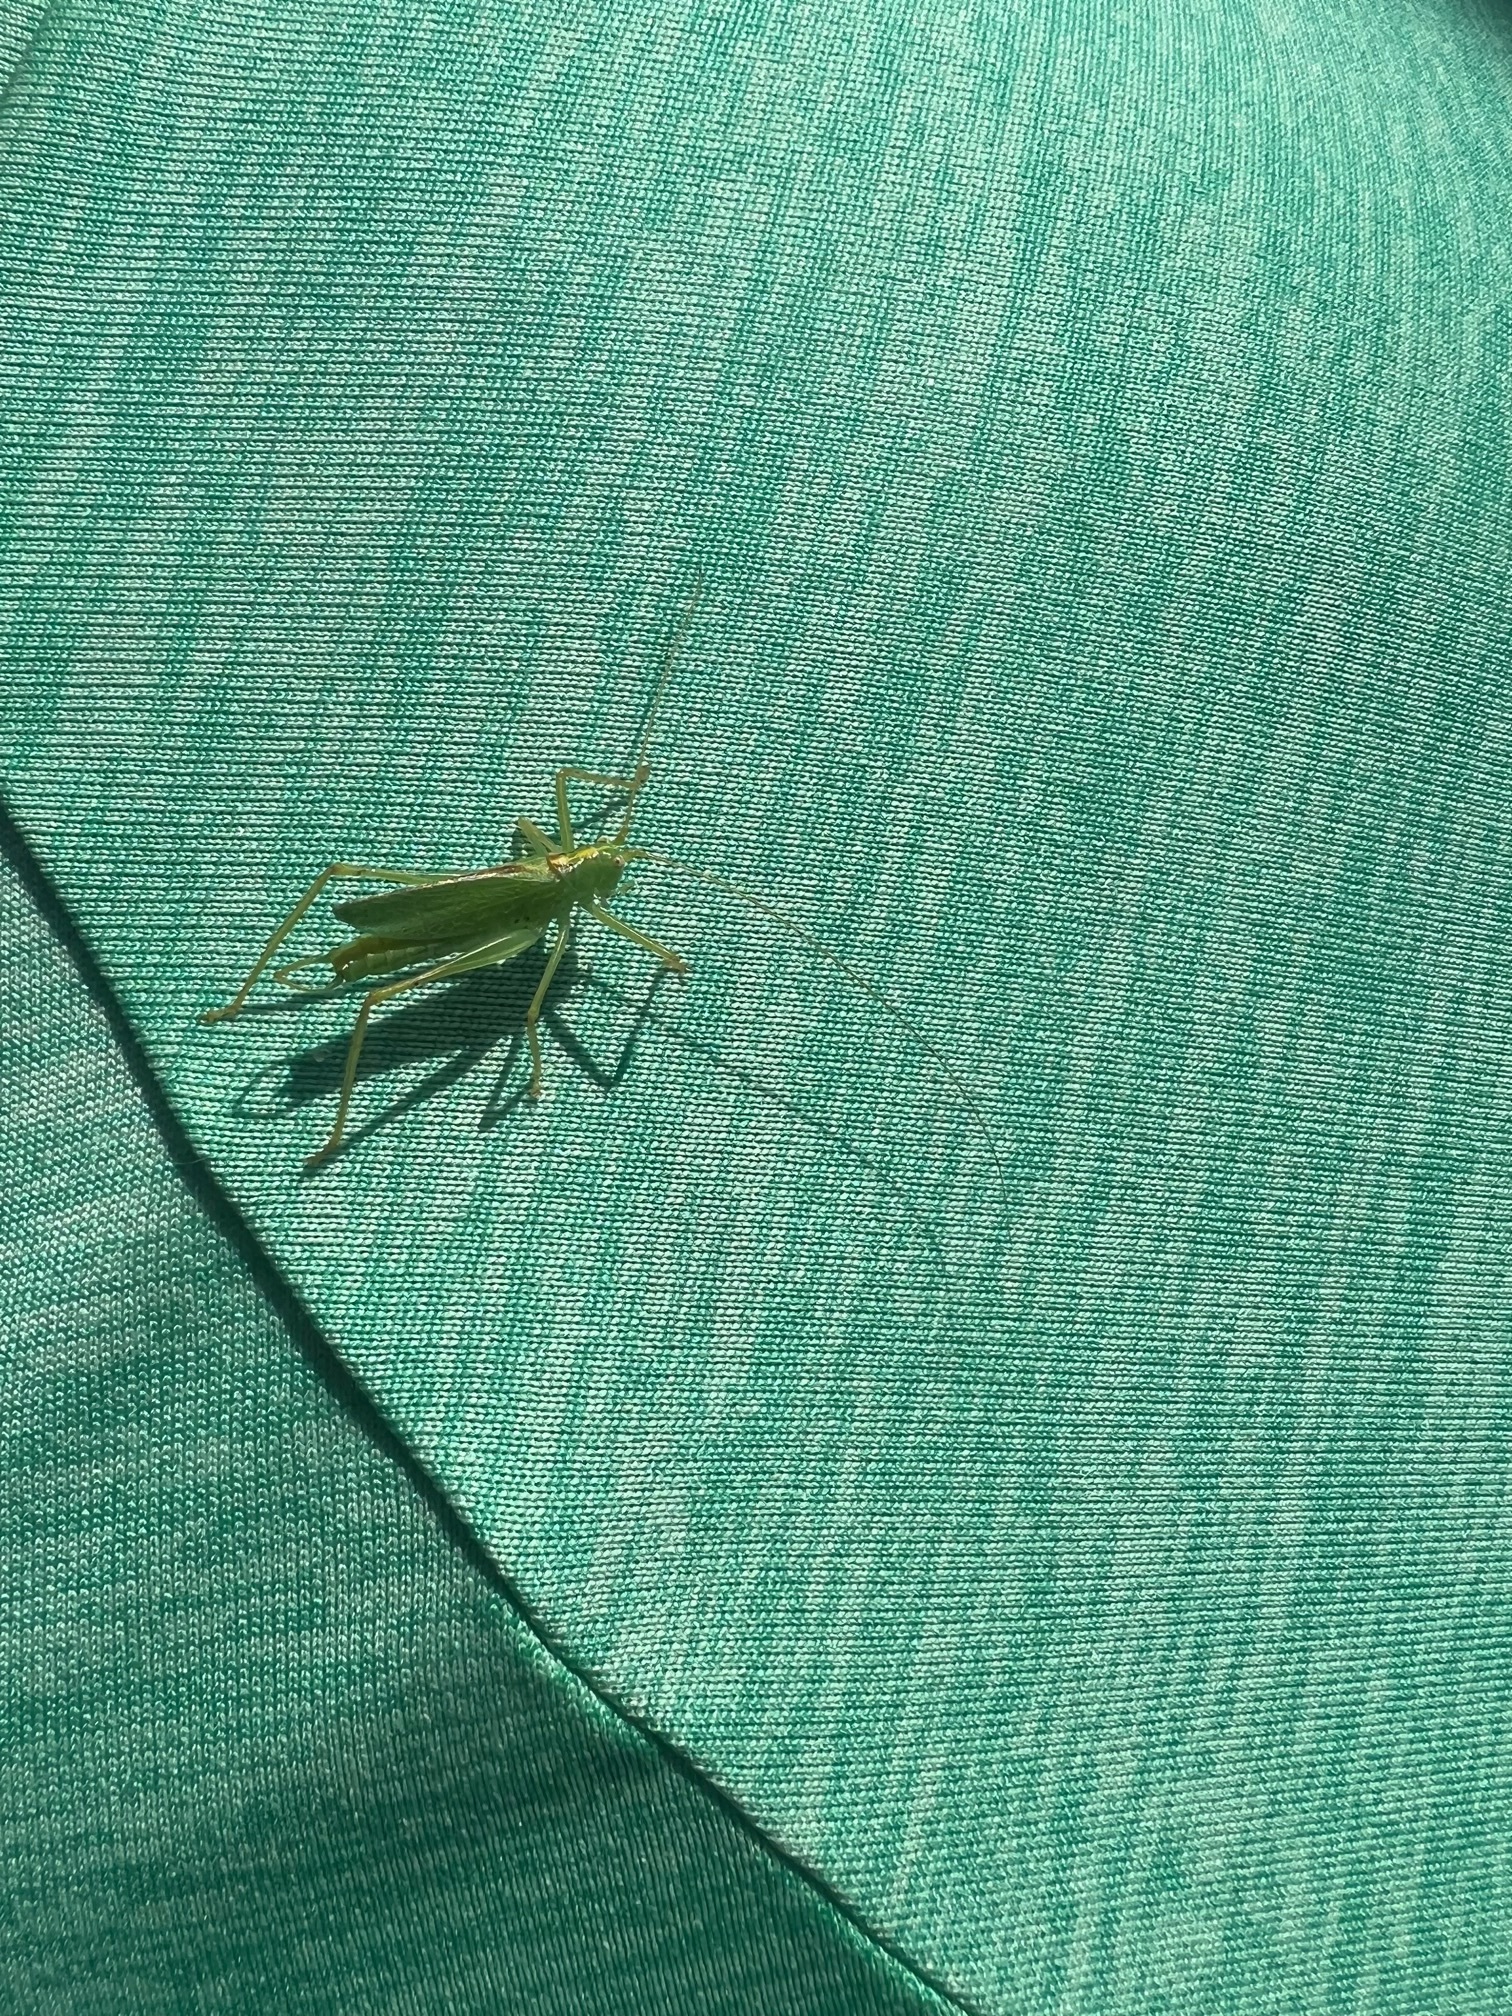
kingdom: Animalia
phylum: Arthropoda
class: Insecta
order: Orthoptera
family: Tettigoniidae
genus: Meconema
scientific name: Meconema thalassinum
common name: Oak bush-cricket
